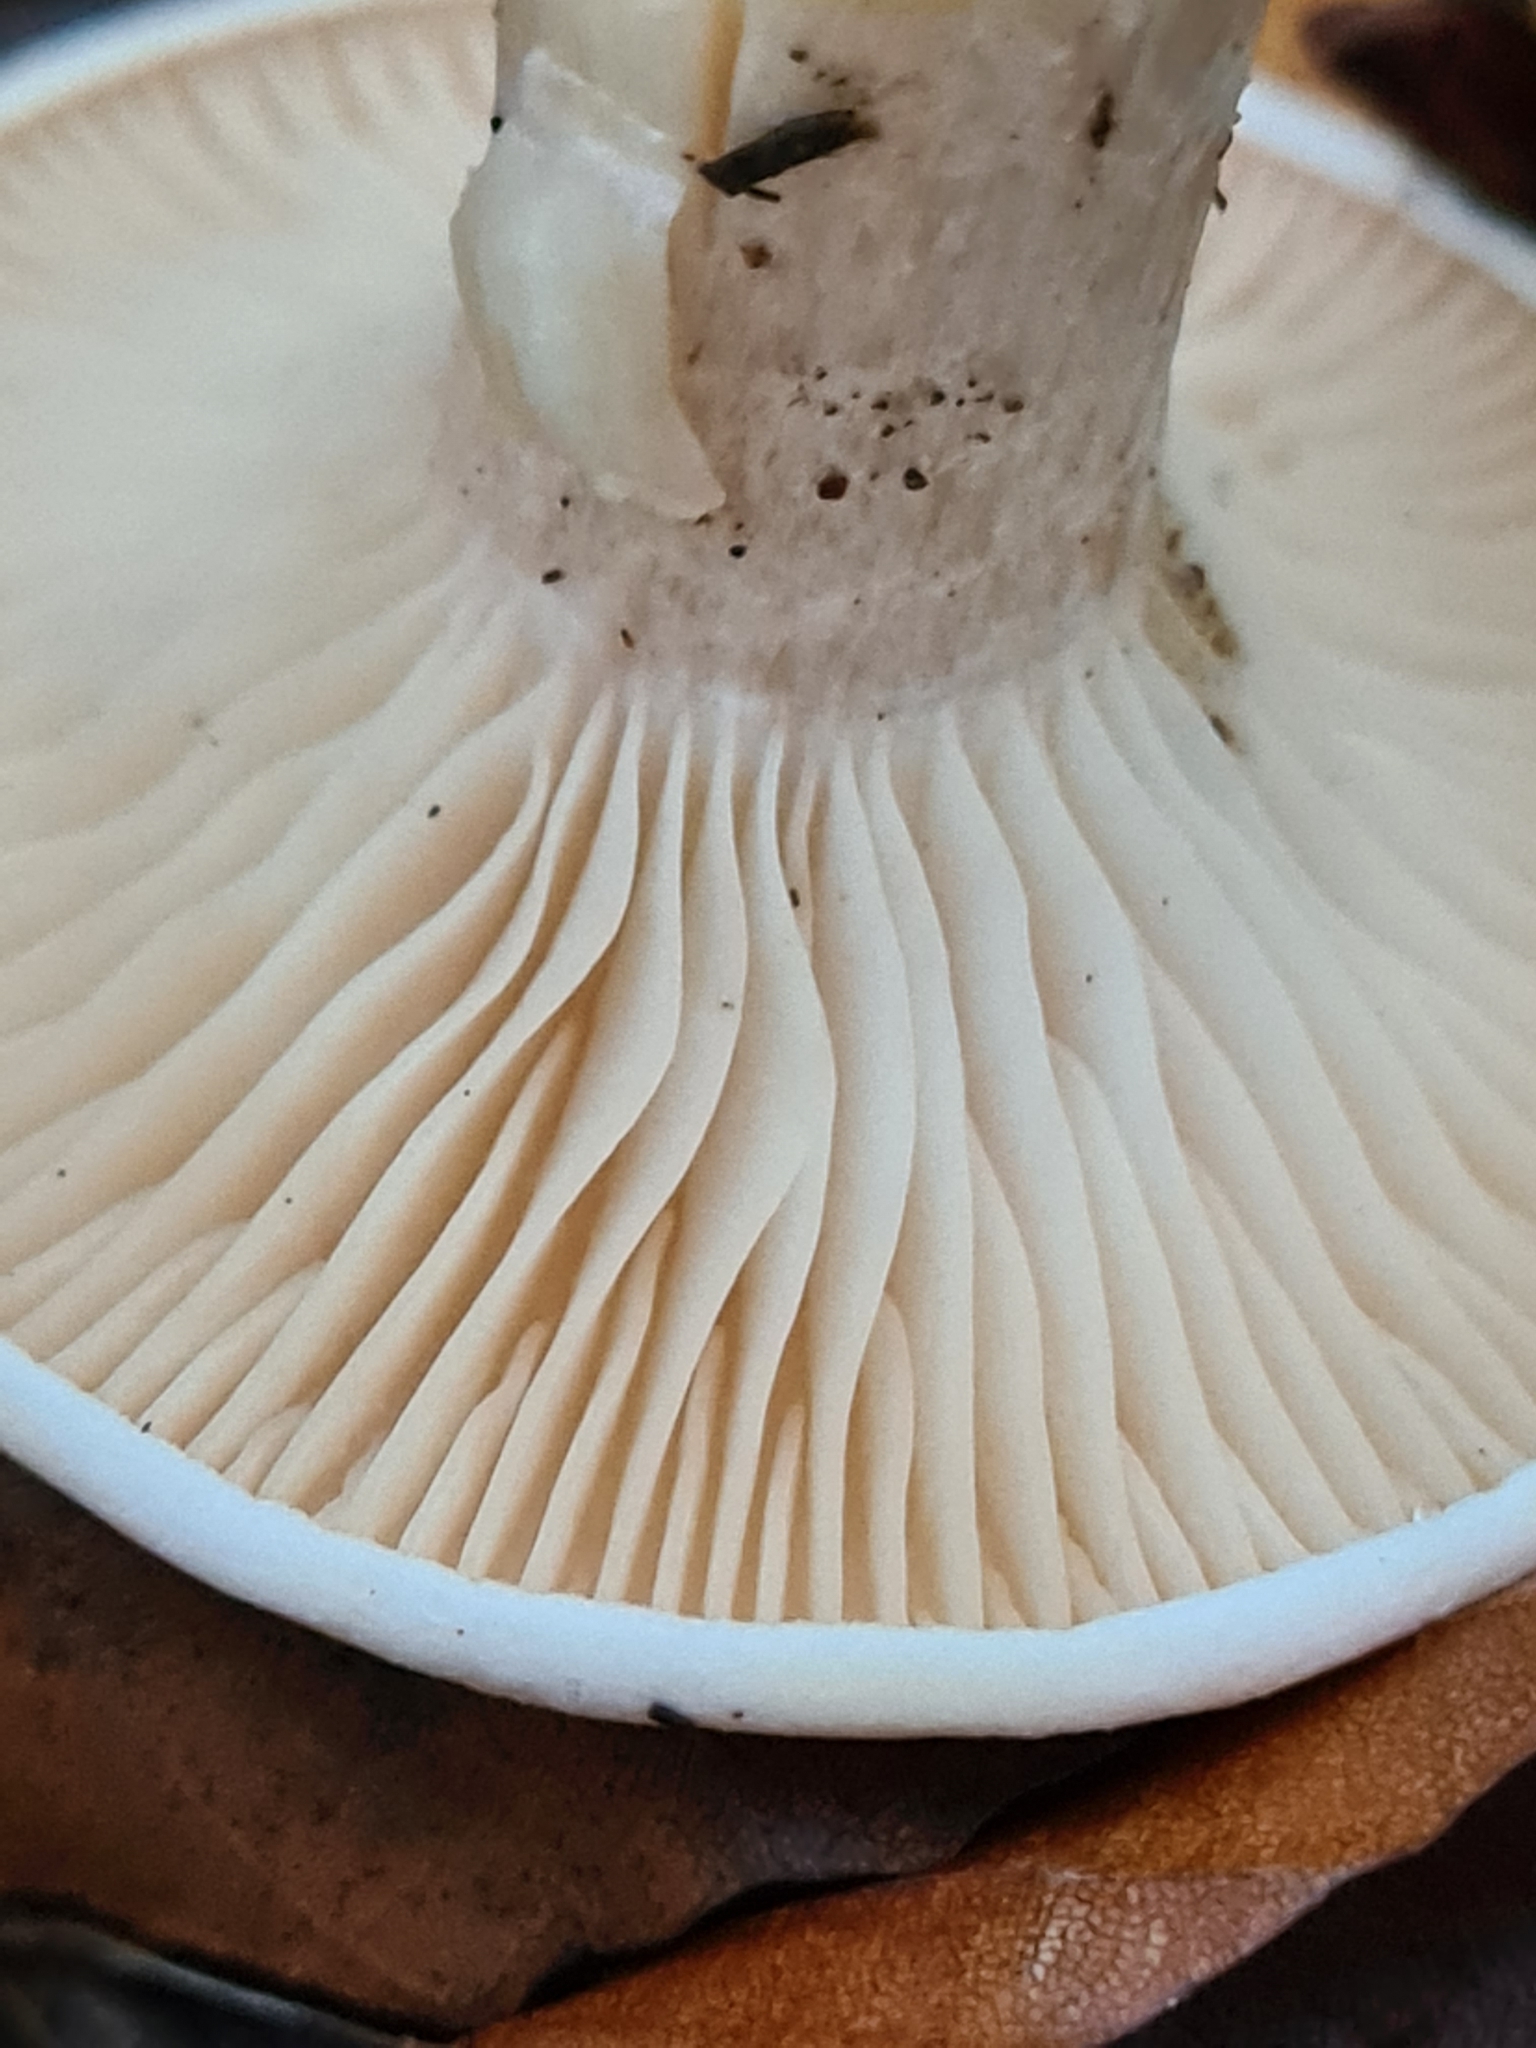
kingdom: Fungi
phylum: Basidiomycota
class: Agaricomycetes
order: Agaricales
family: Tricholomataceae
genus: Infundibulicybe
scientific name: Infundibulicybe geotropa
